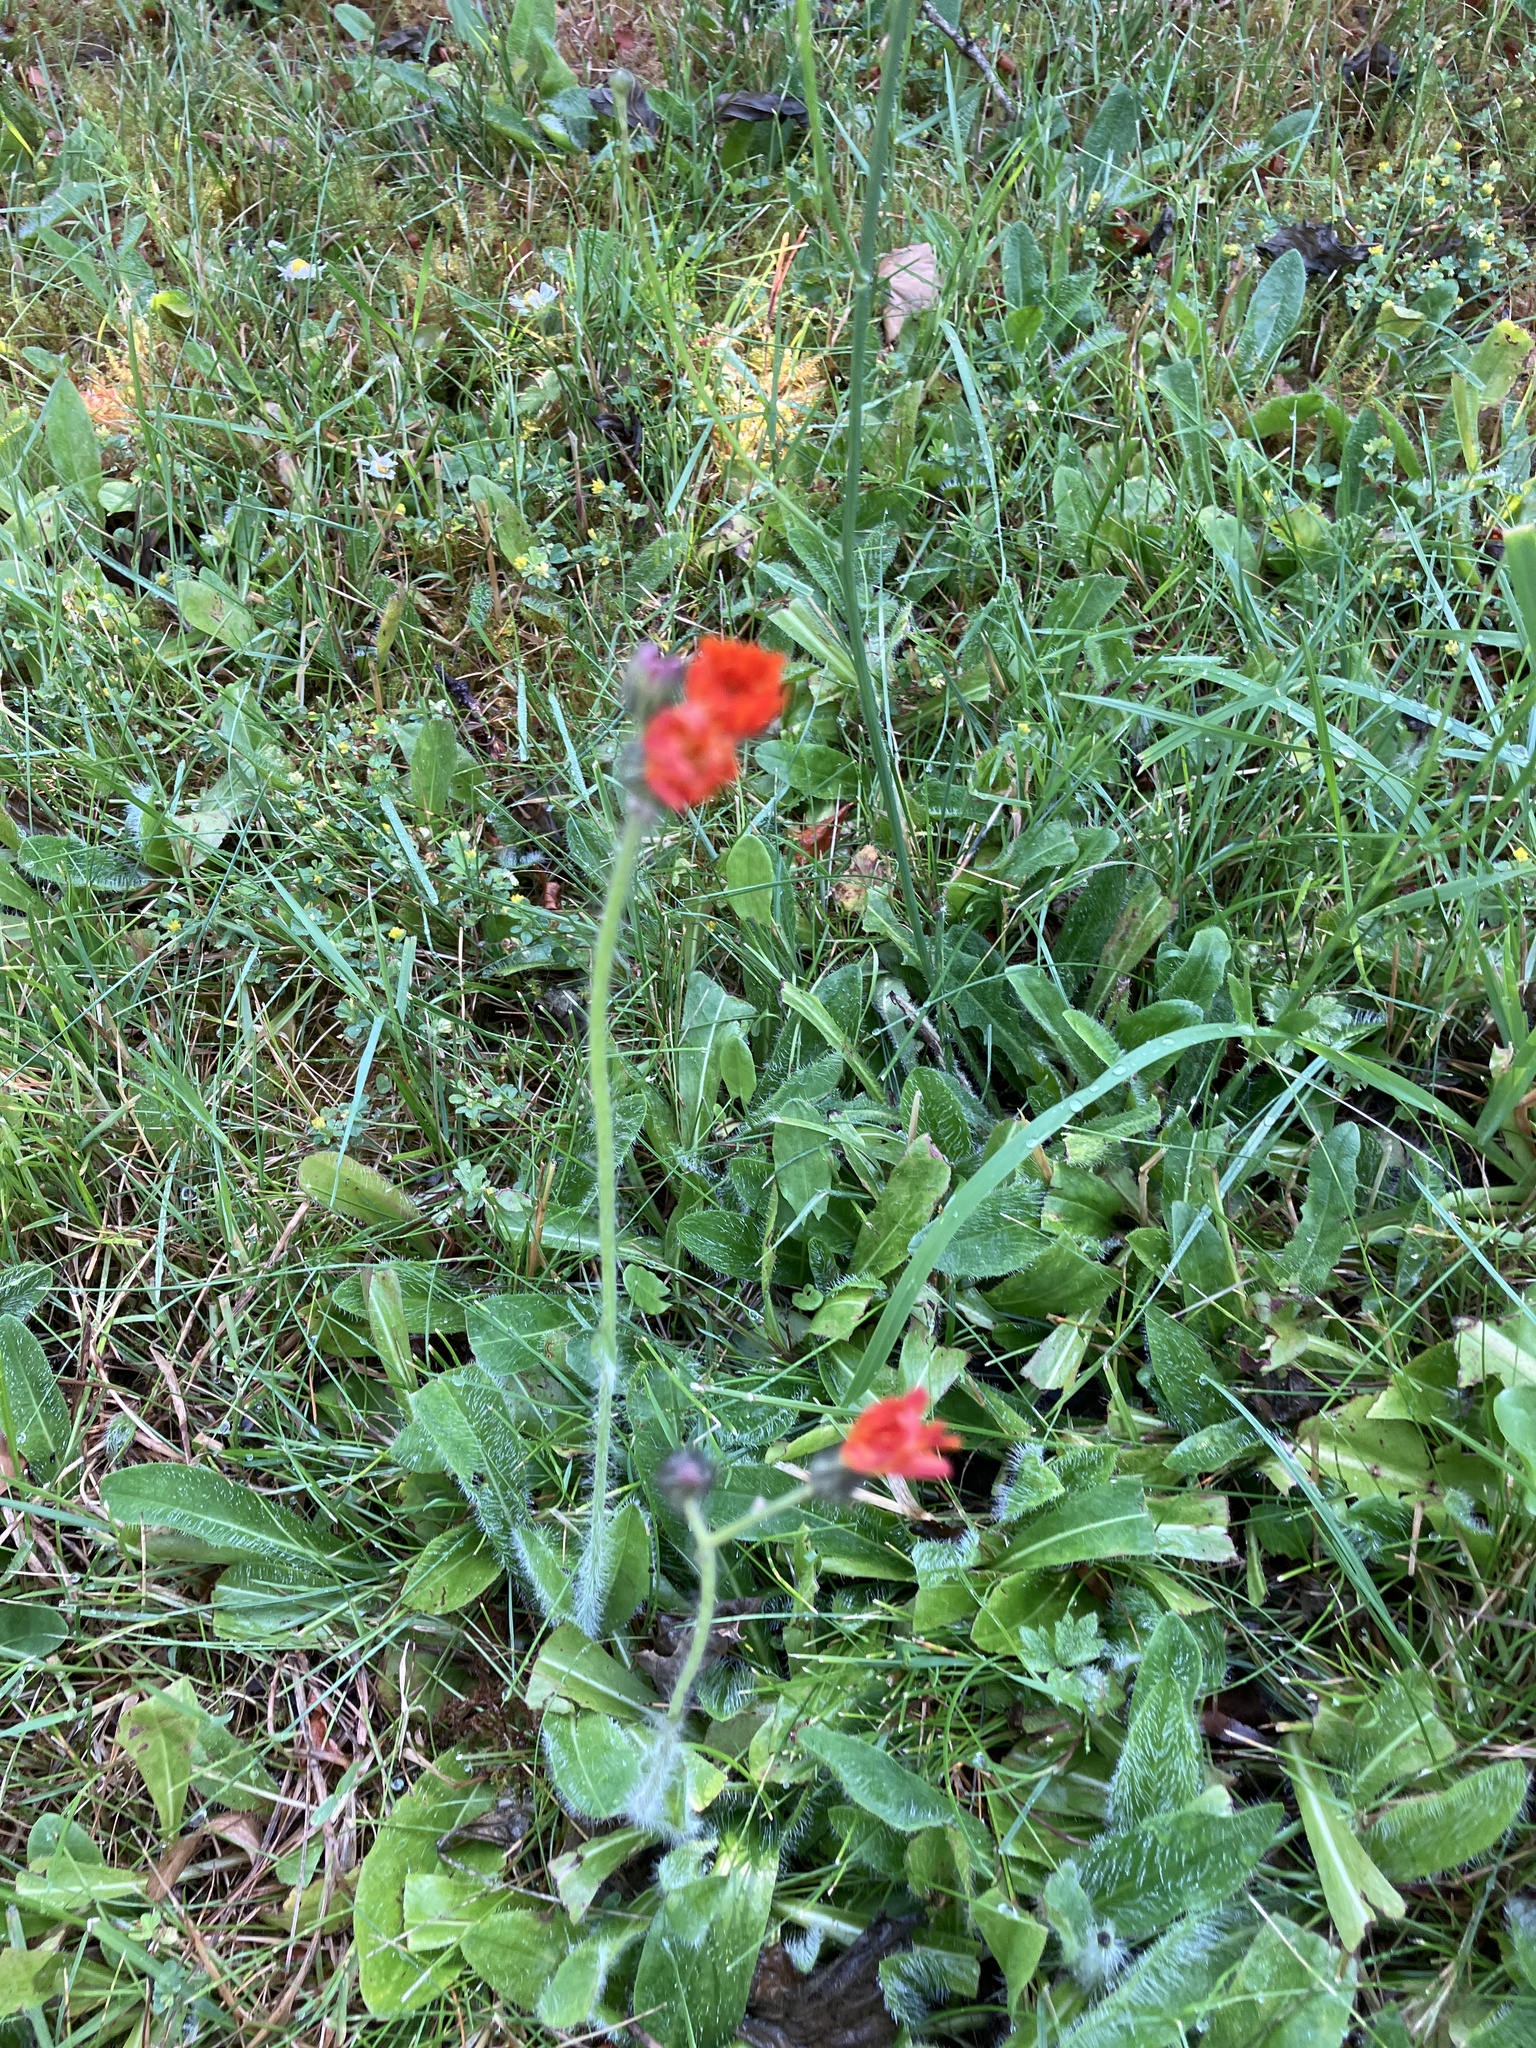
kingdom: Plantae
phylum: Tracheophyta
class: Magnoliopsida
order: Asterales
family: Asteraceae
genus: Pilosella
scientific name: Pilosella aurantiaca
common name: Fox-and-cubs
